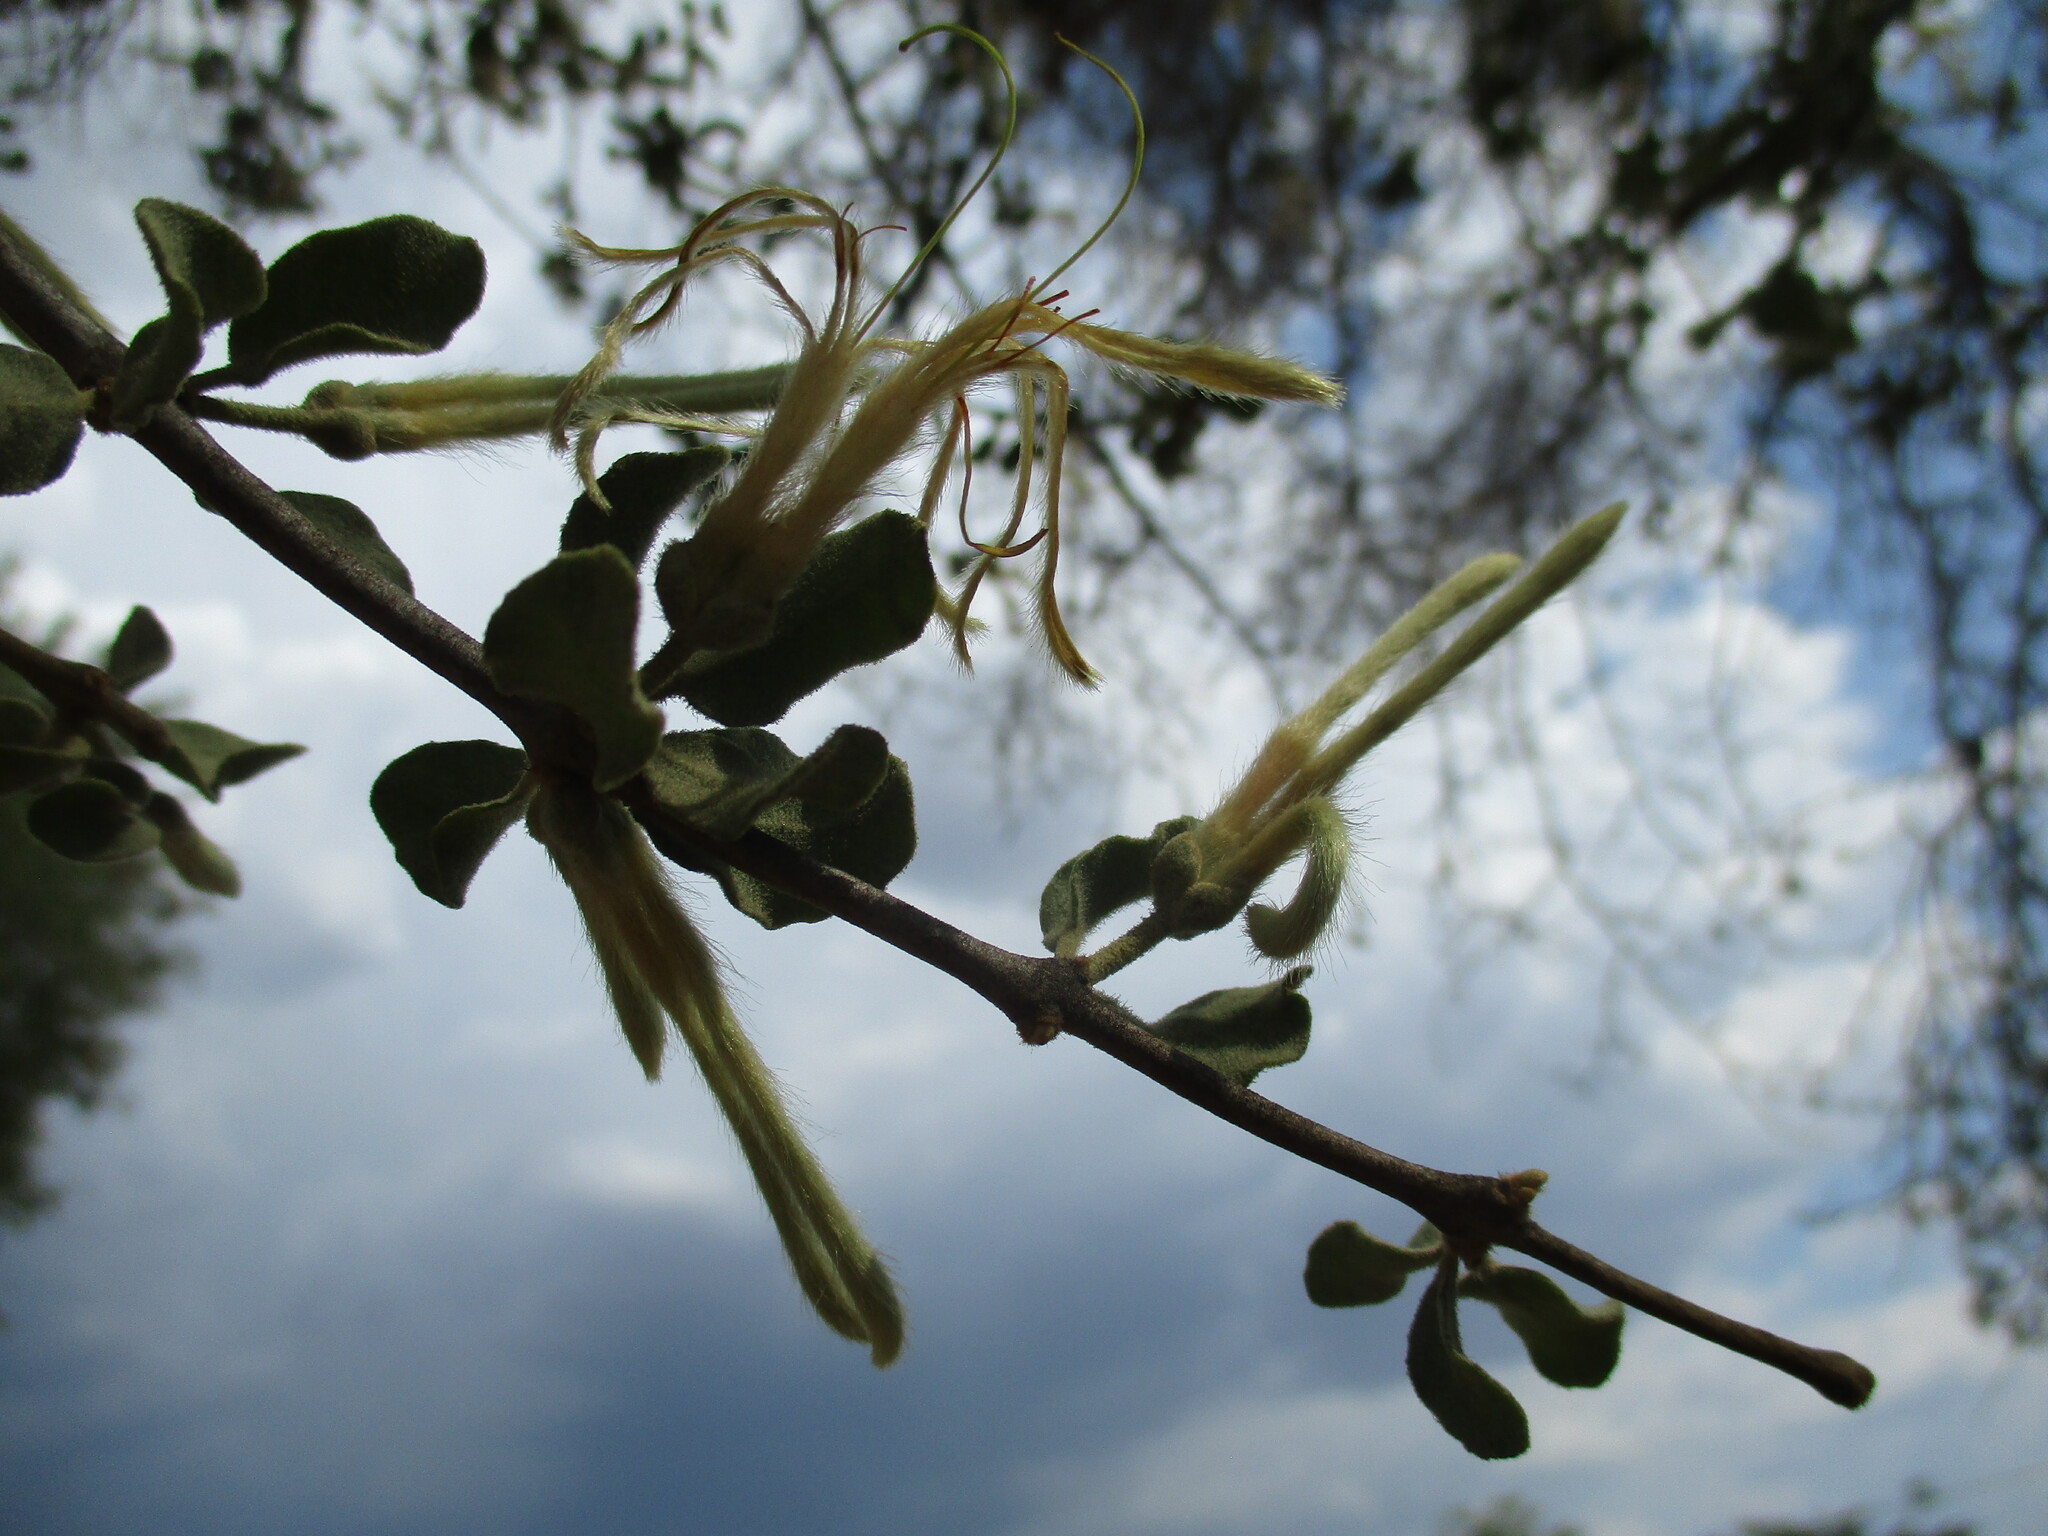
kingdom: Plantae
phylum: Tracheophyta
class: Magnoliopsida
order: Santalales
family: Loranthaceae
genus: Erianthemum
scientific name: Erianthemum ngamicum
